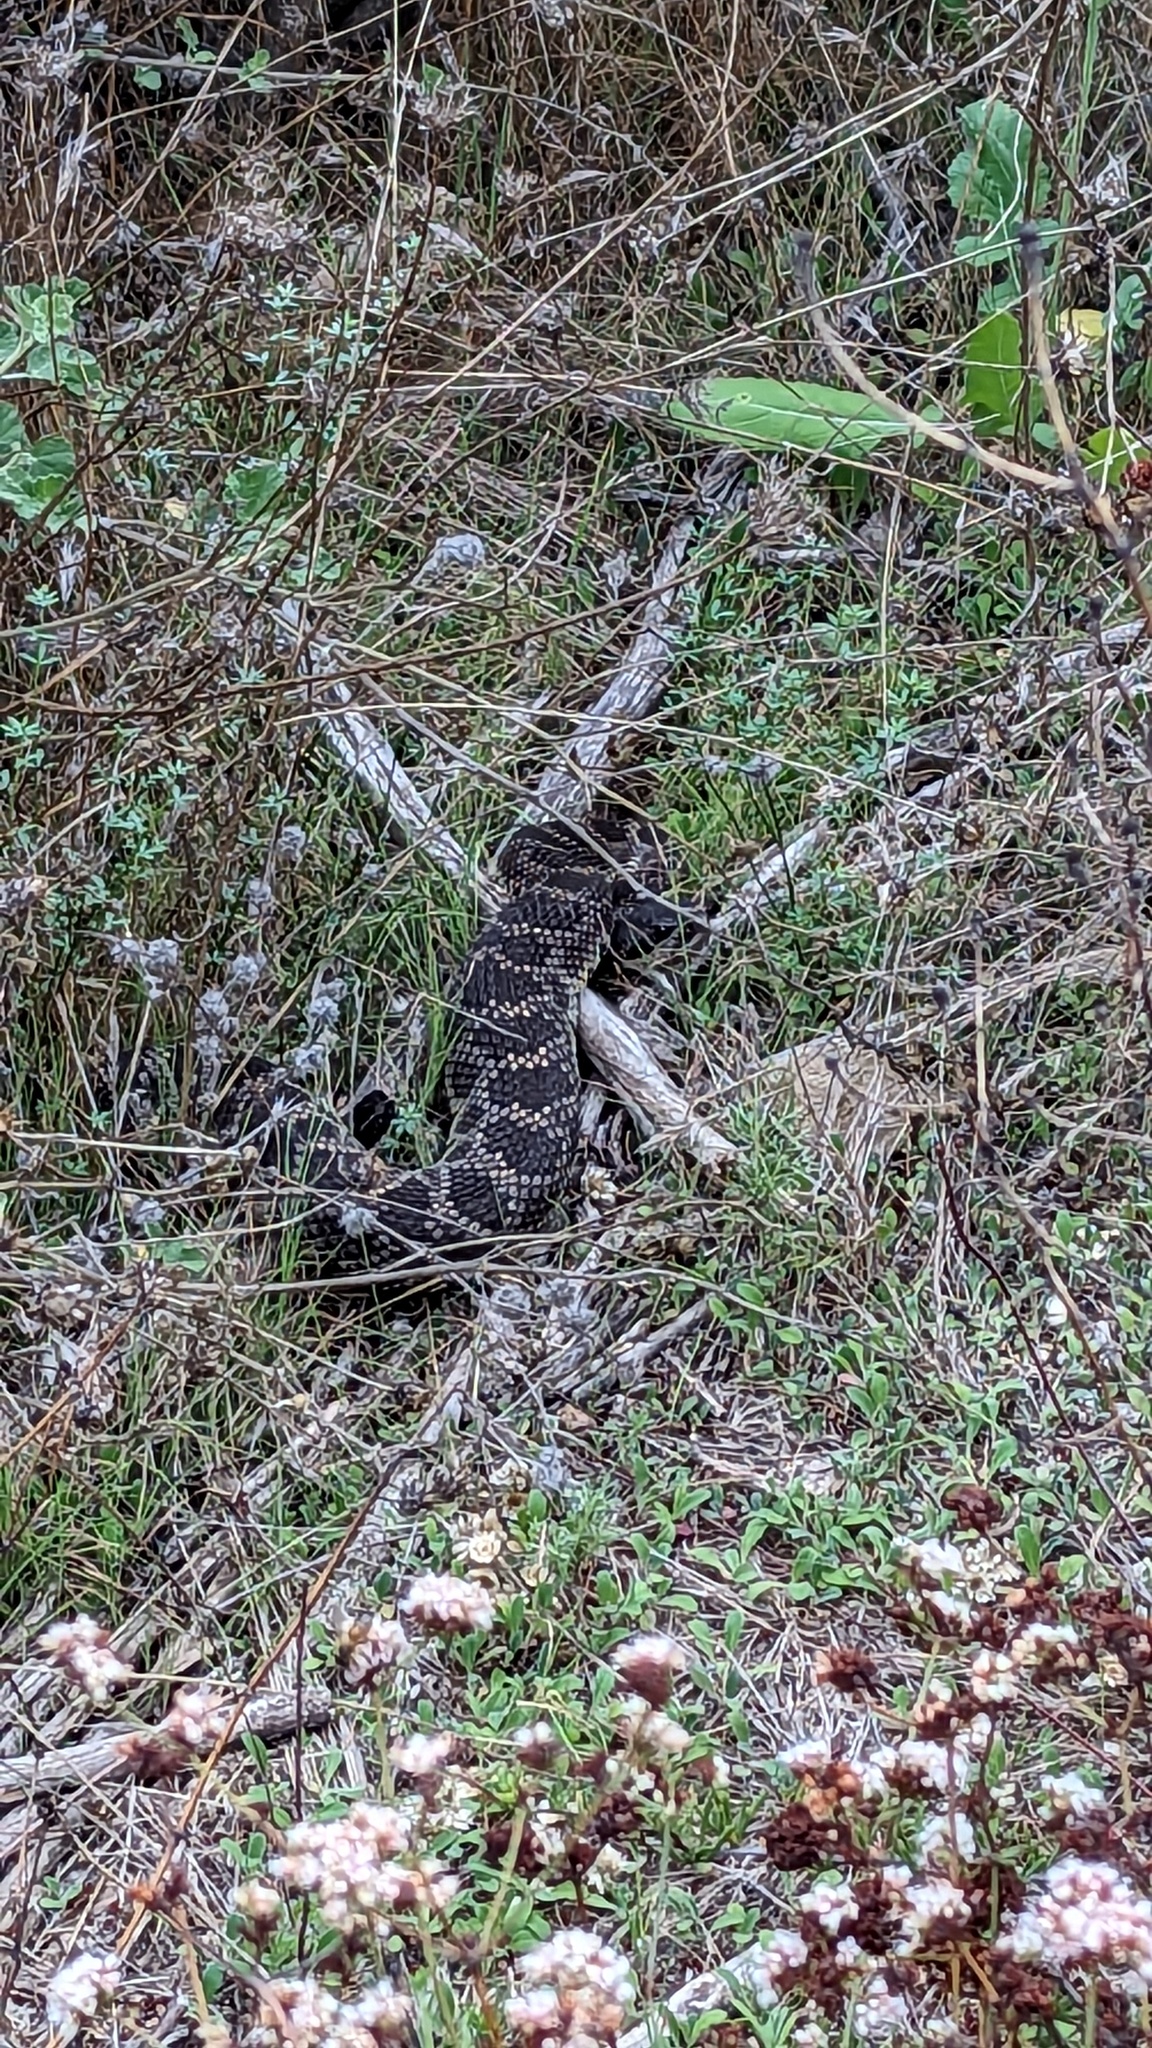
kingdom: Animalia
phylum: Chordata
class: Squamata
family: Viperidae
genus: Crotalus
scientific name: Crotalus oreganus
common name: Abyssus
